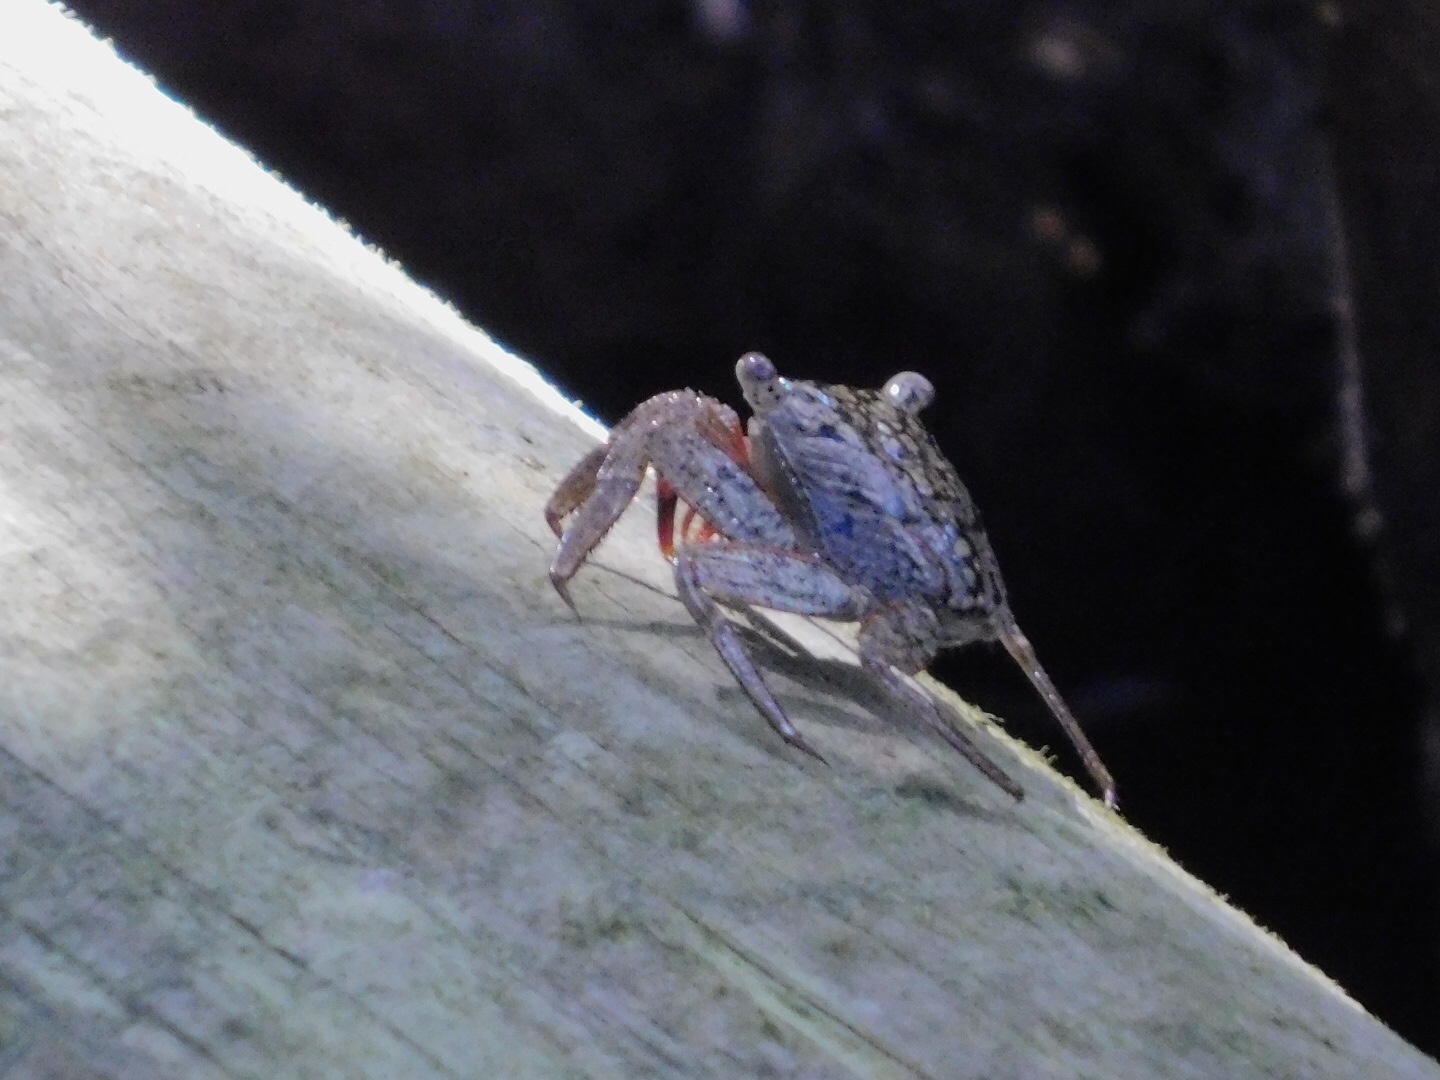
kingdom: Animalia
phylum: Arthropoda
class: Malacostraca
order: Decapoda
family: Sesarmidae
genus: Aratus
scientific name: Aratus pisonii
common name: Mangrove crab
